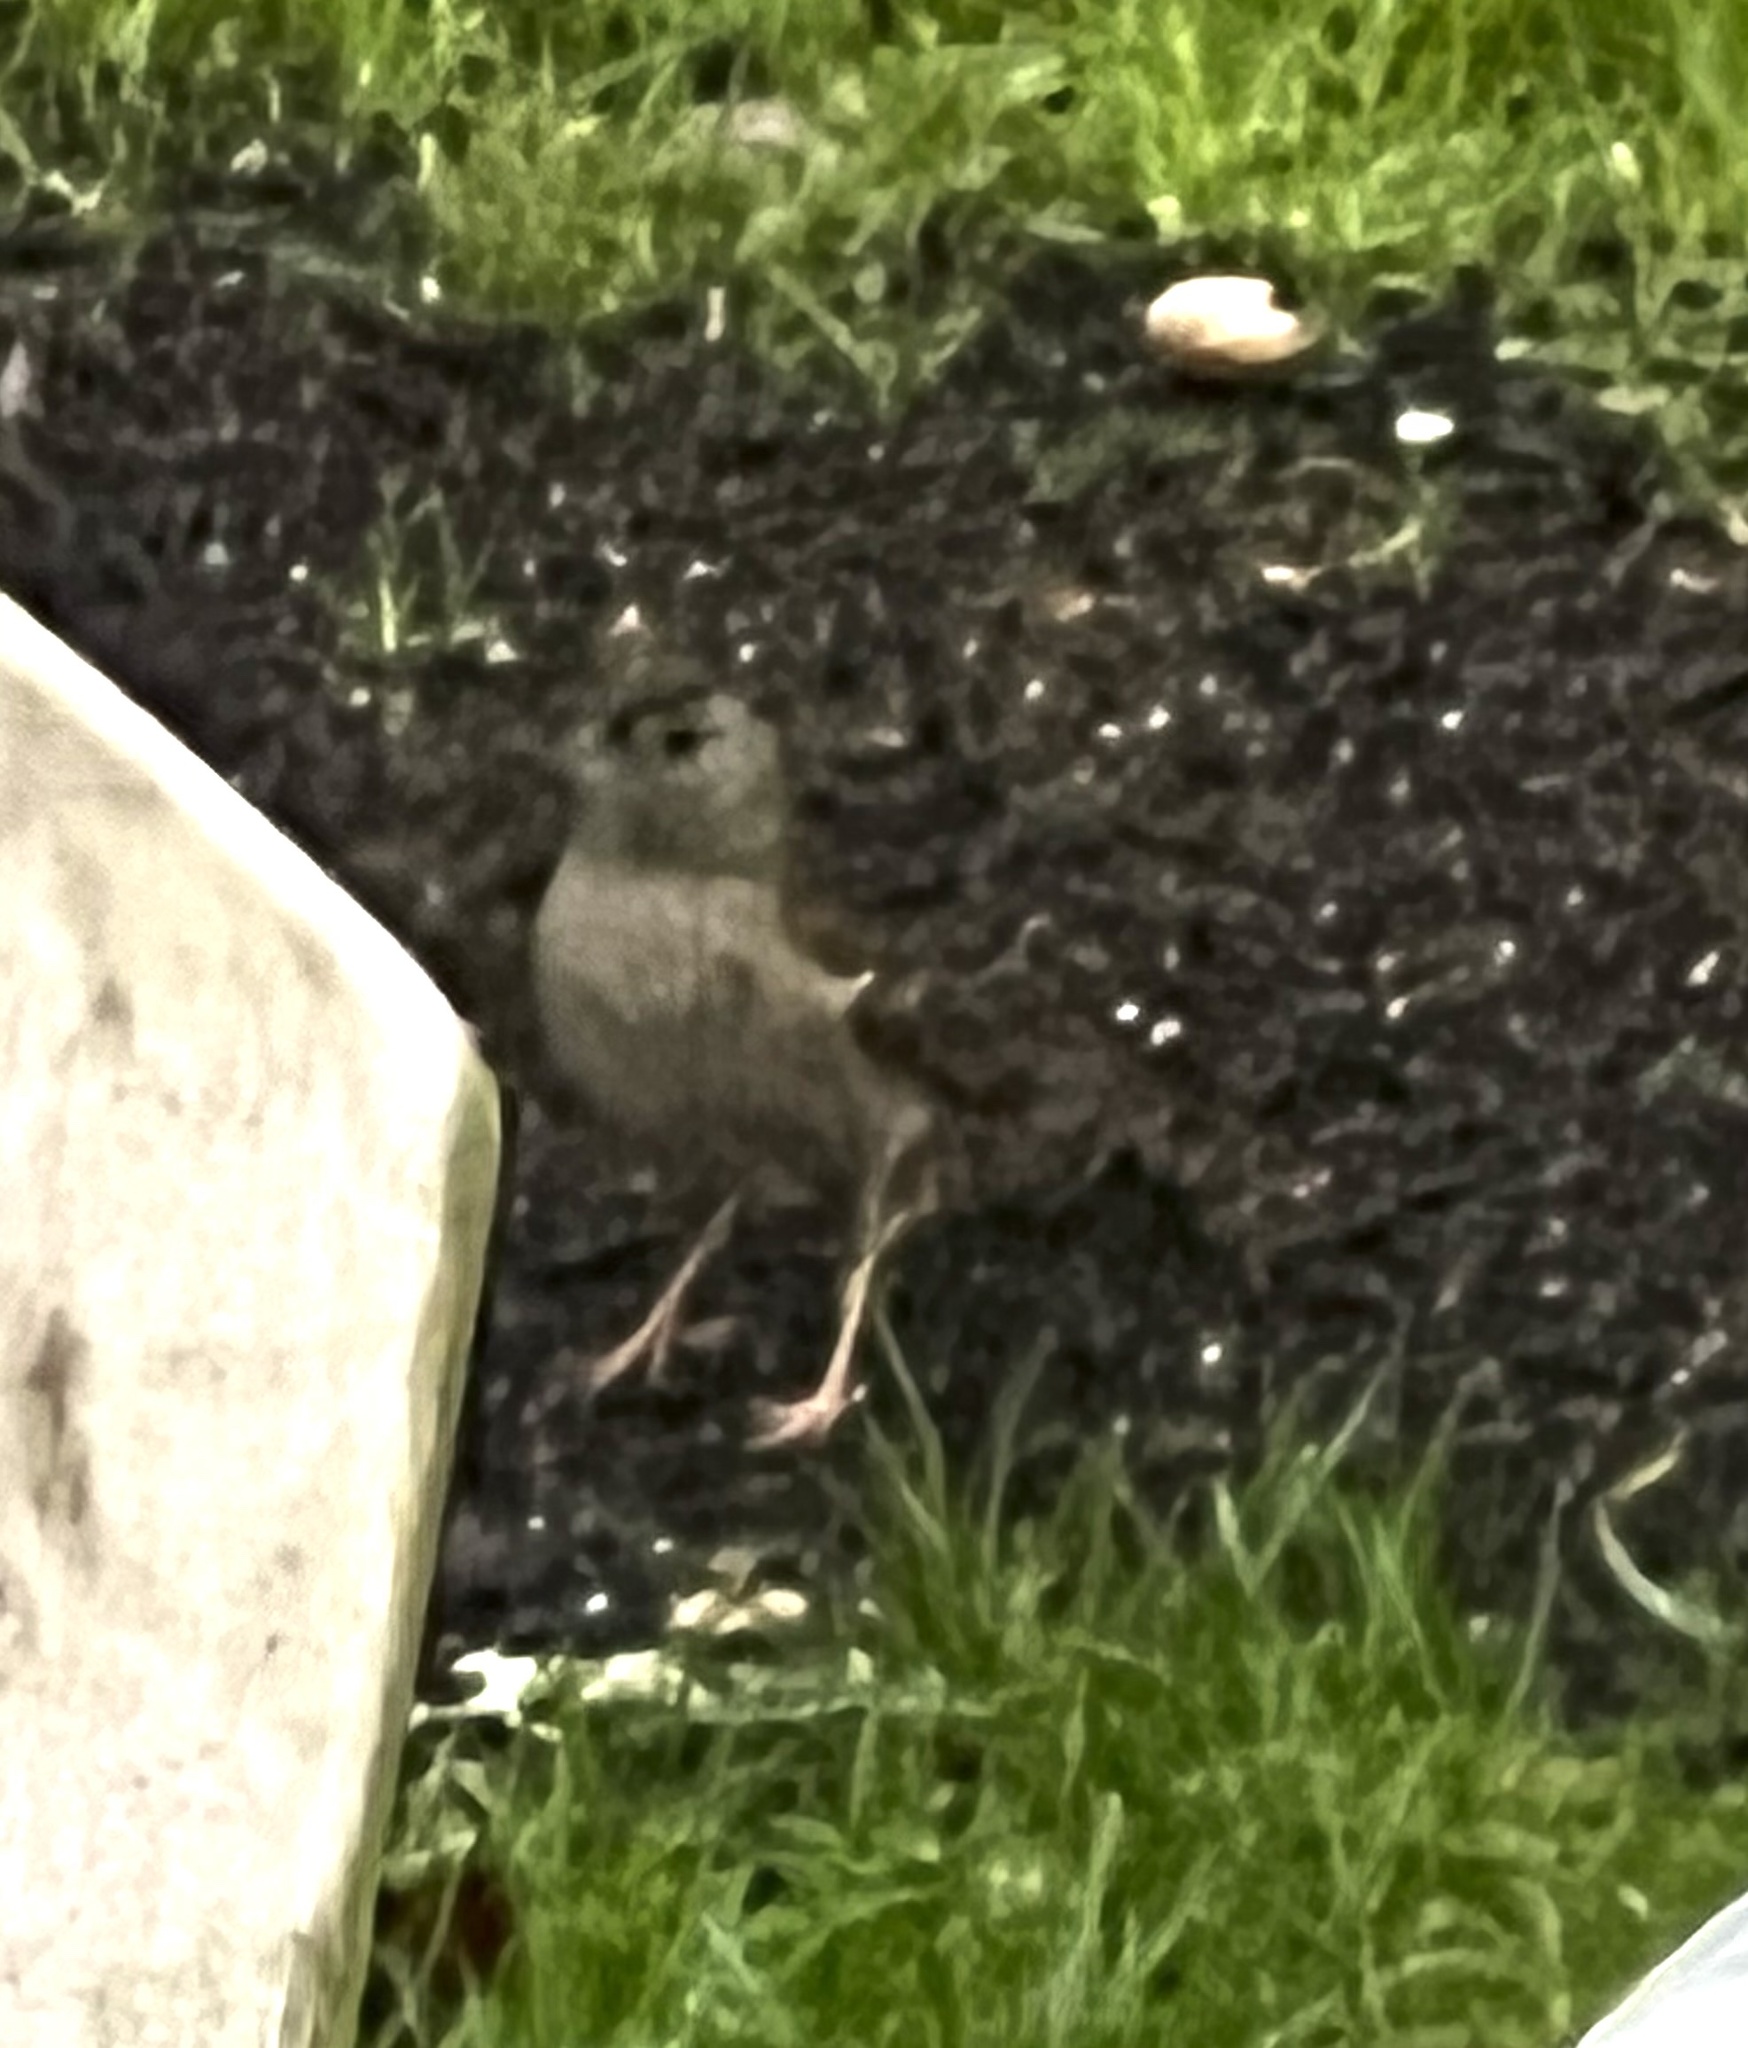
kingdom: Animalia
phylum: Chordata
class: Aves
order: Passeriformes
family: Passerellidae
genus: Zonotrichia
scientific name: Zonotrichia atricapilla
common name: Golden-crowned sparrow
